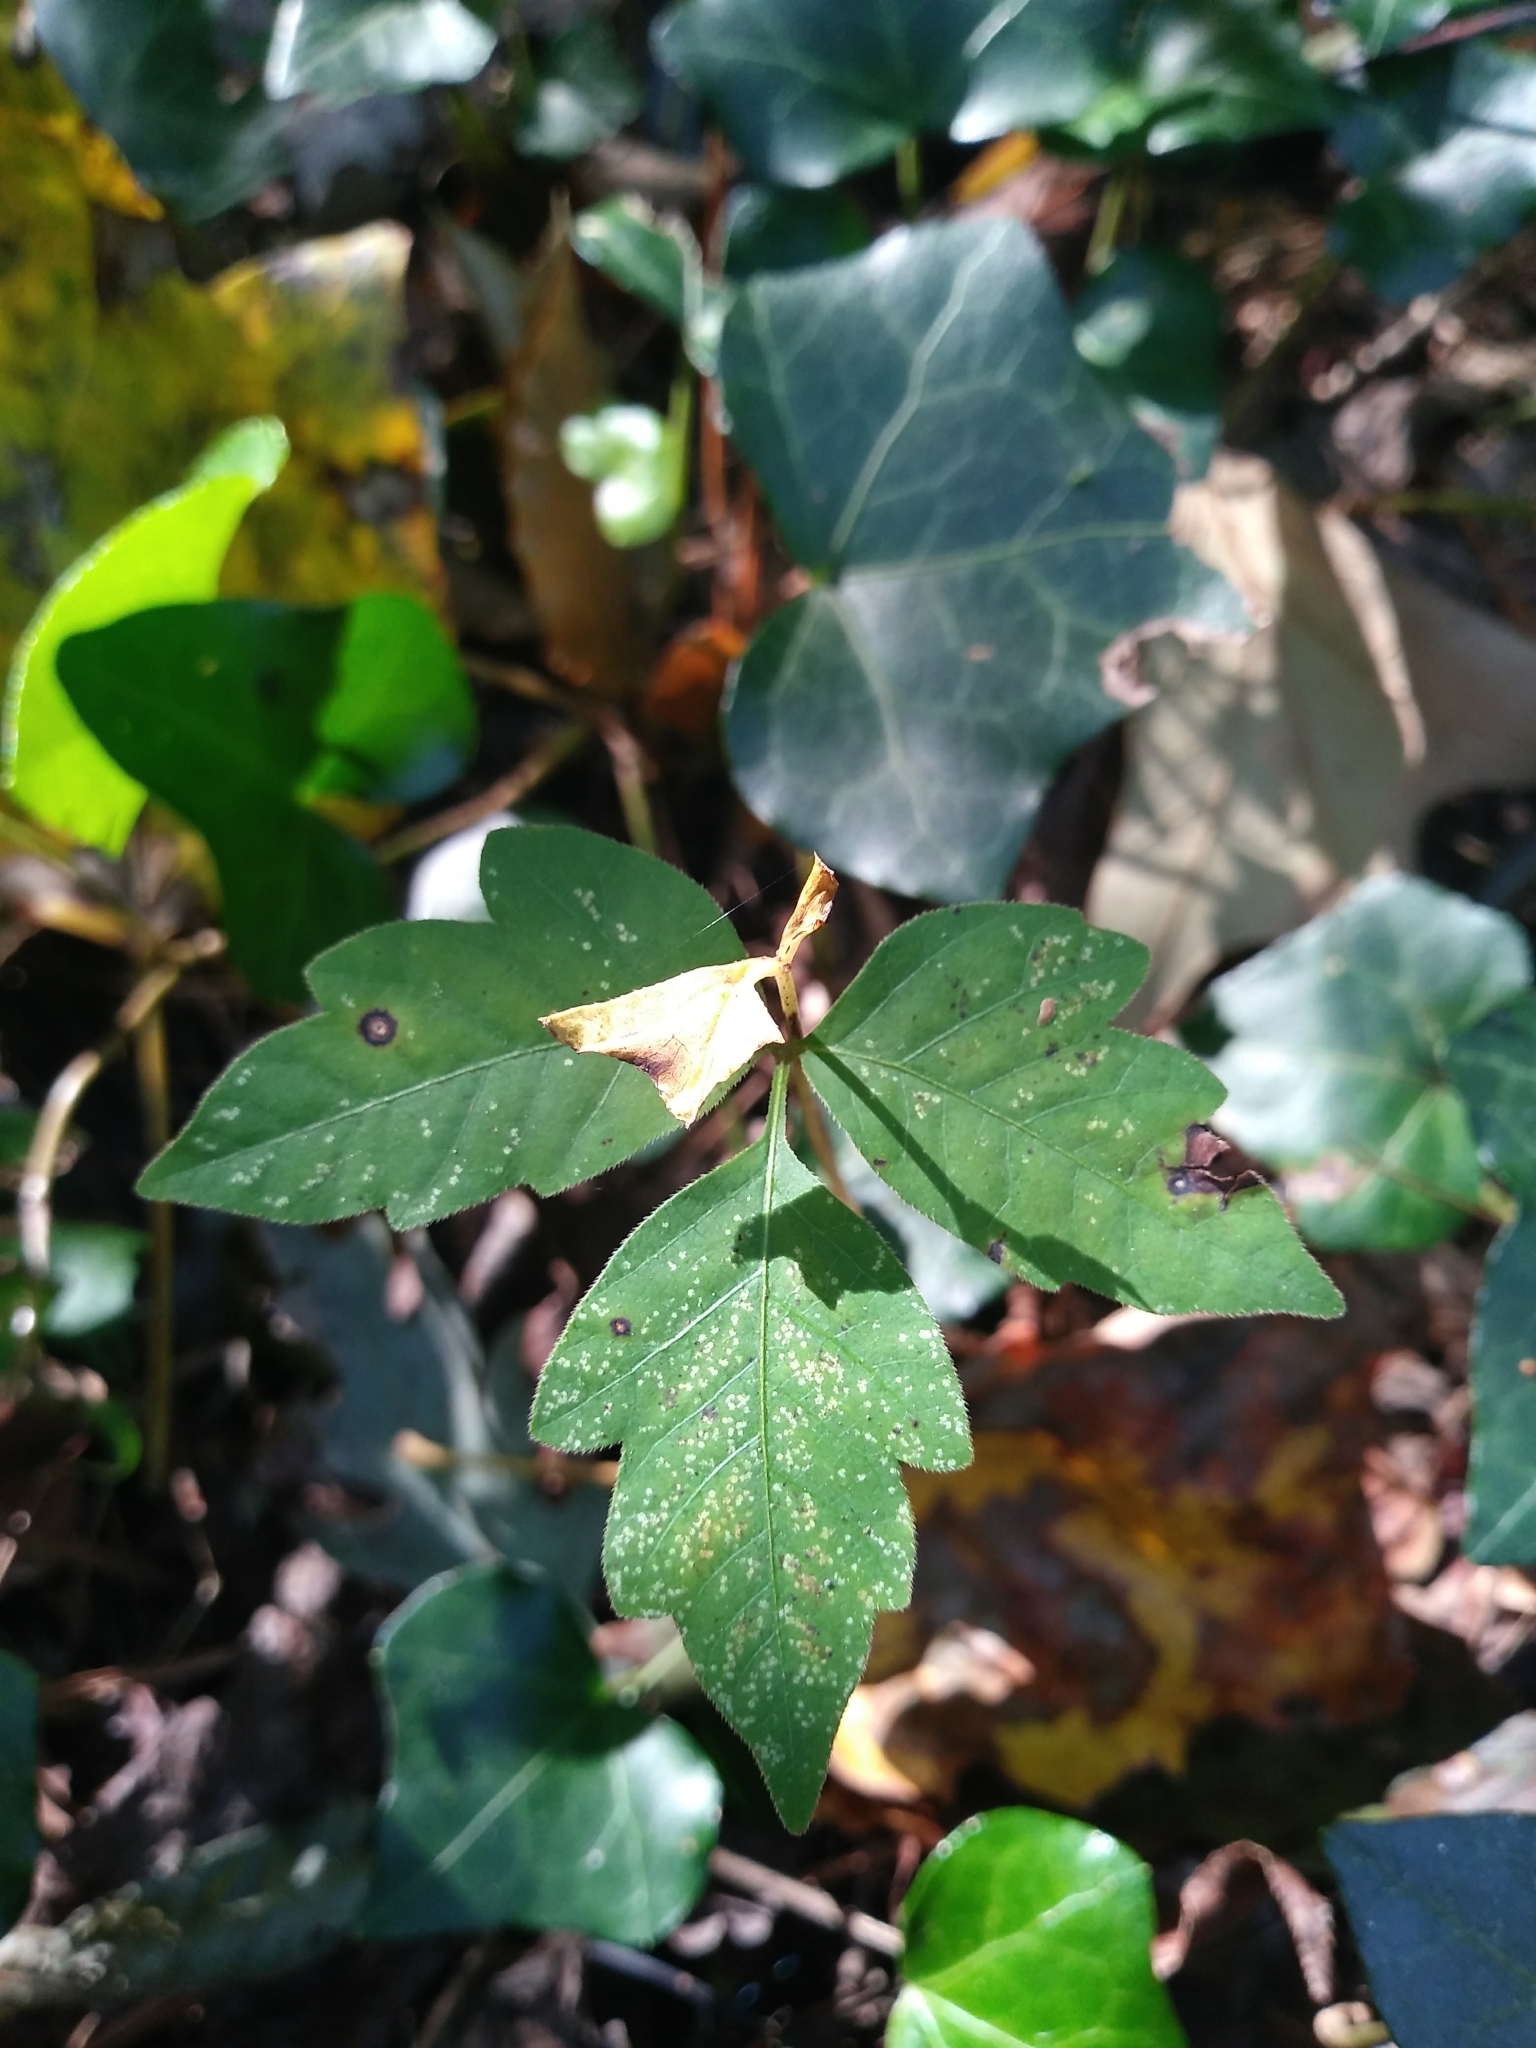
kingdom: Plantae
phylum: Tracheophyta
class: Magnoliopsida
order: Sapindales
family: Anacardiaceae
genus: Toxicodendron
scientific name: Toxicodendron radicans
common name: Poison ivy
